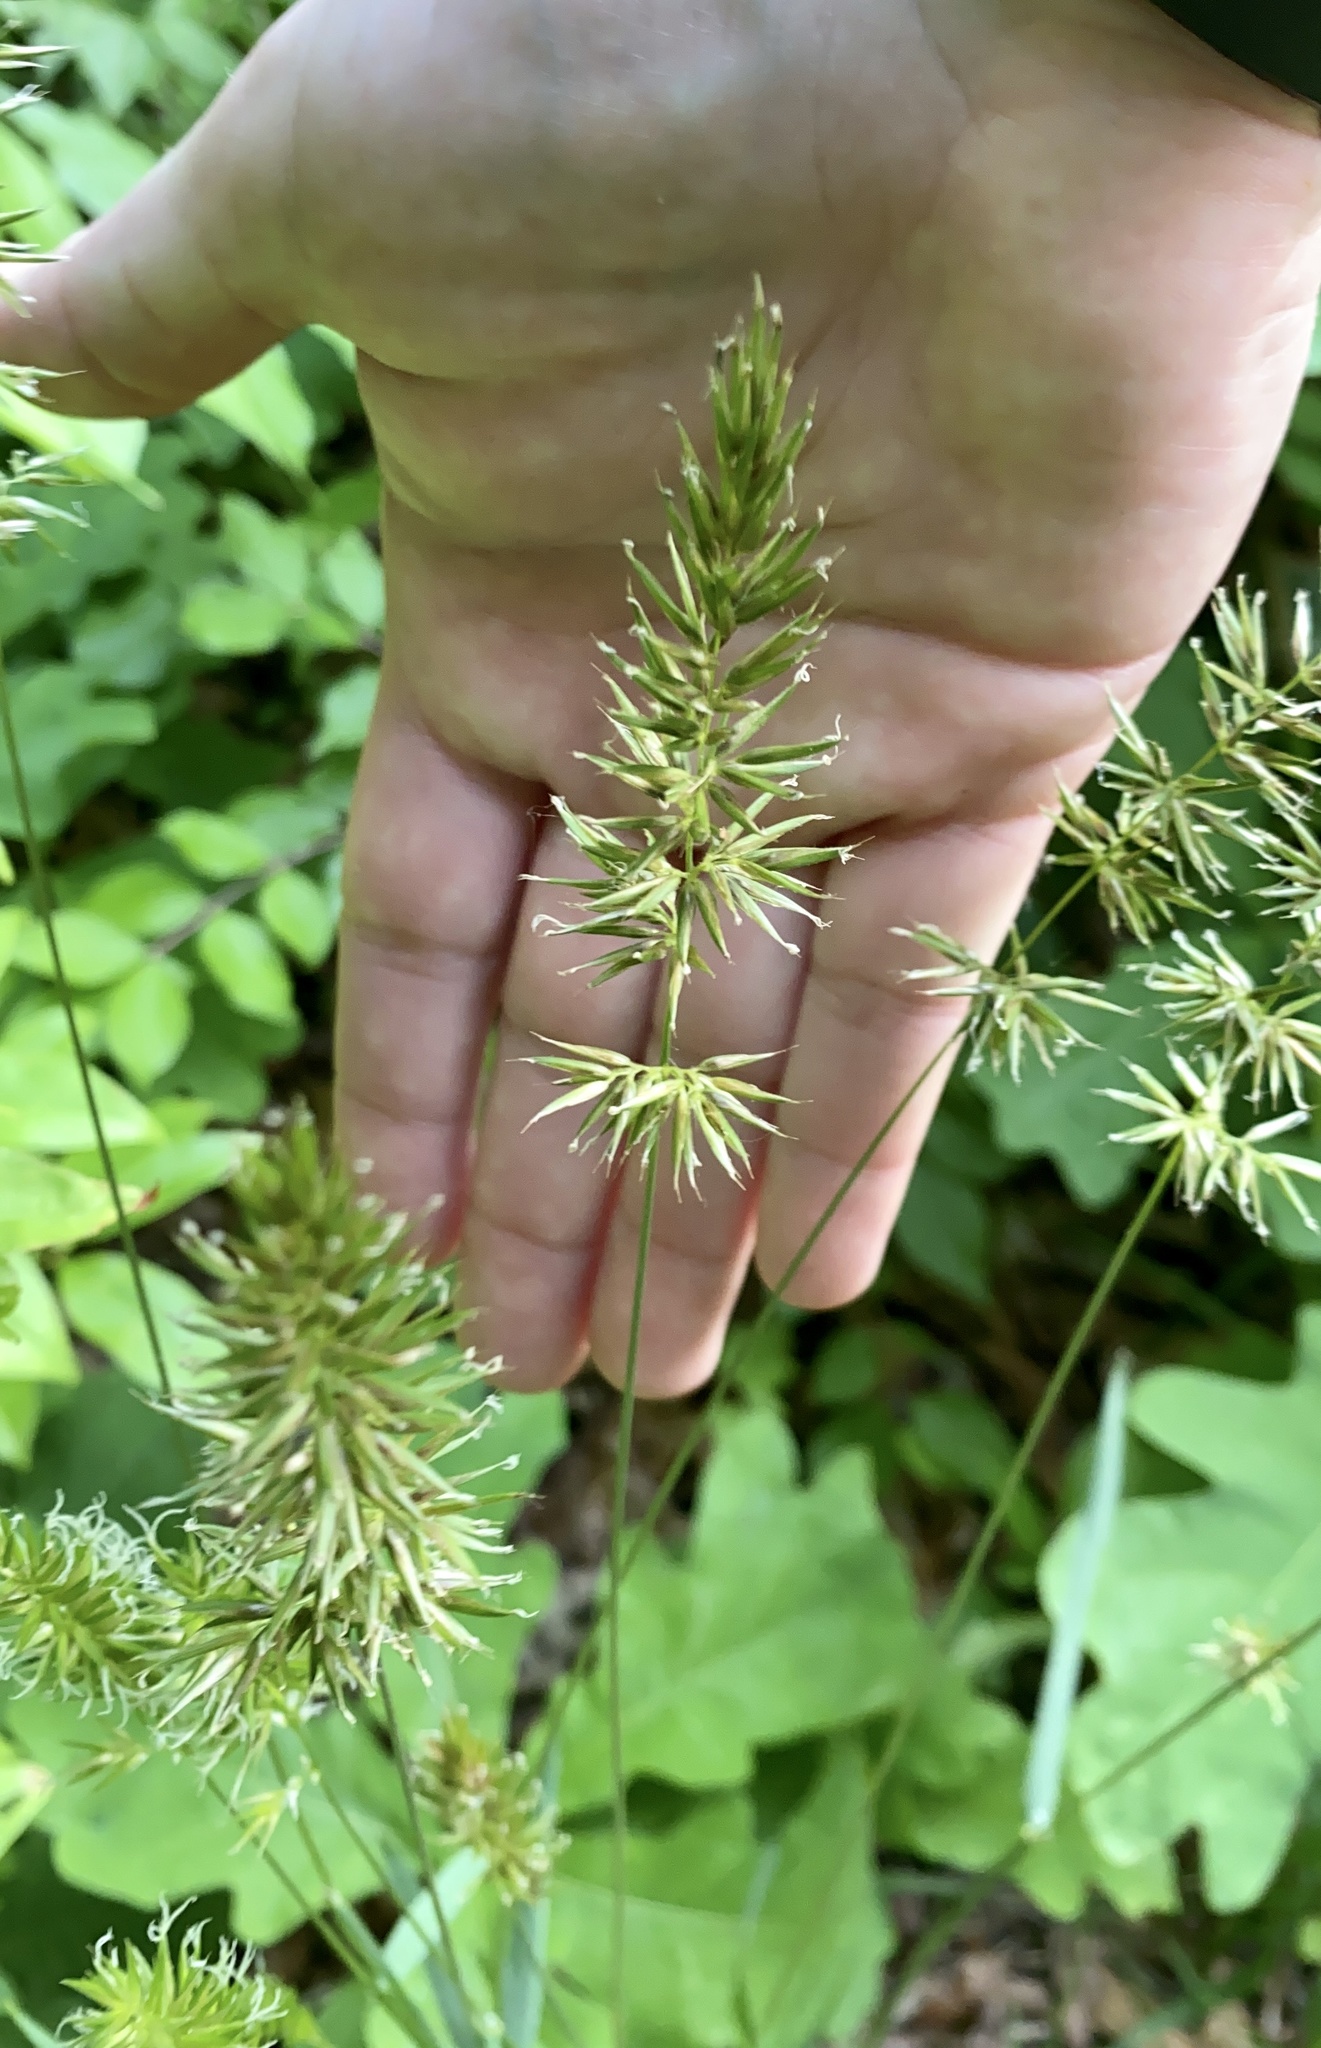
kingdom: Plantae
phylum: Tracheophyta
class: Liliopsida
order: Poales
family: Poaceae
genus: Anthoxanthum
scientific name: Anthoxanthum odoratum
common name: Sweet vernalgrass
